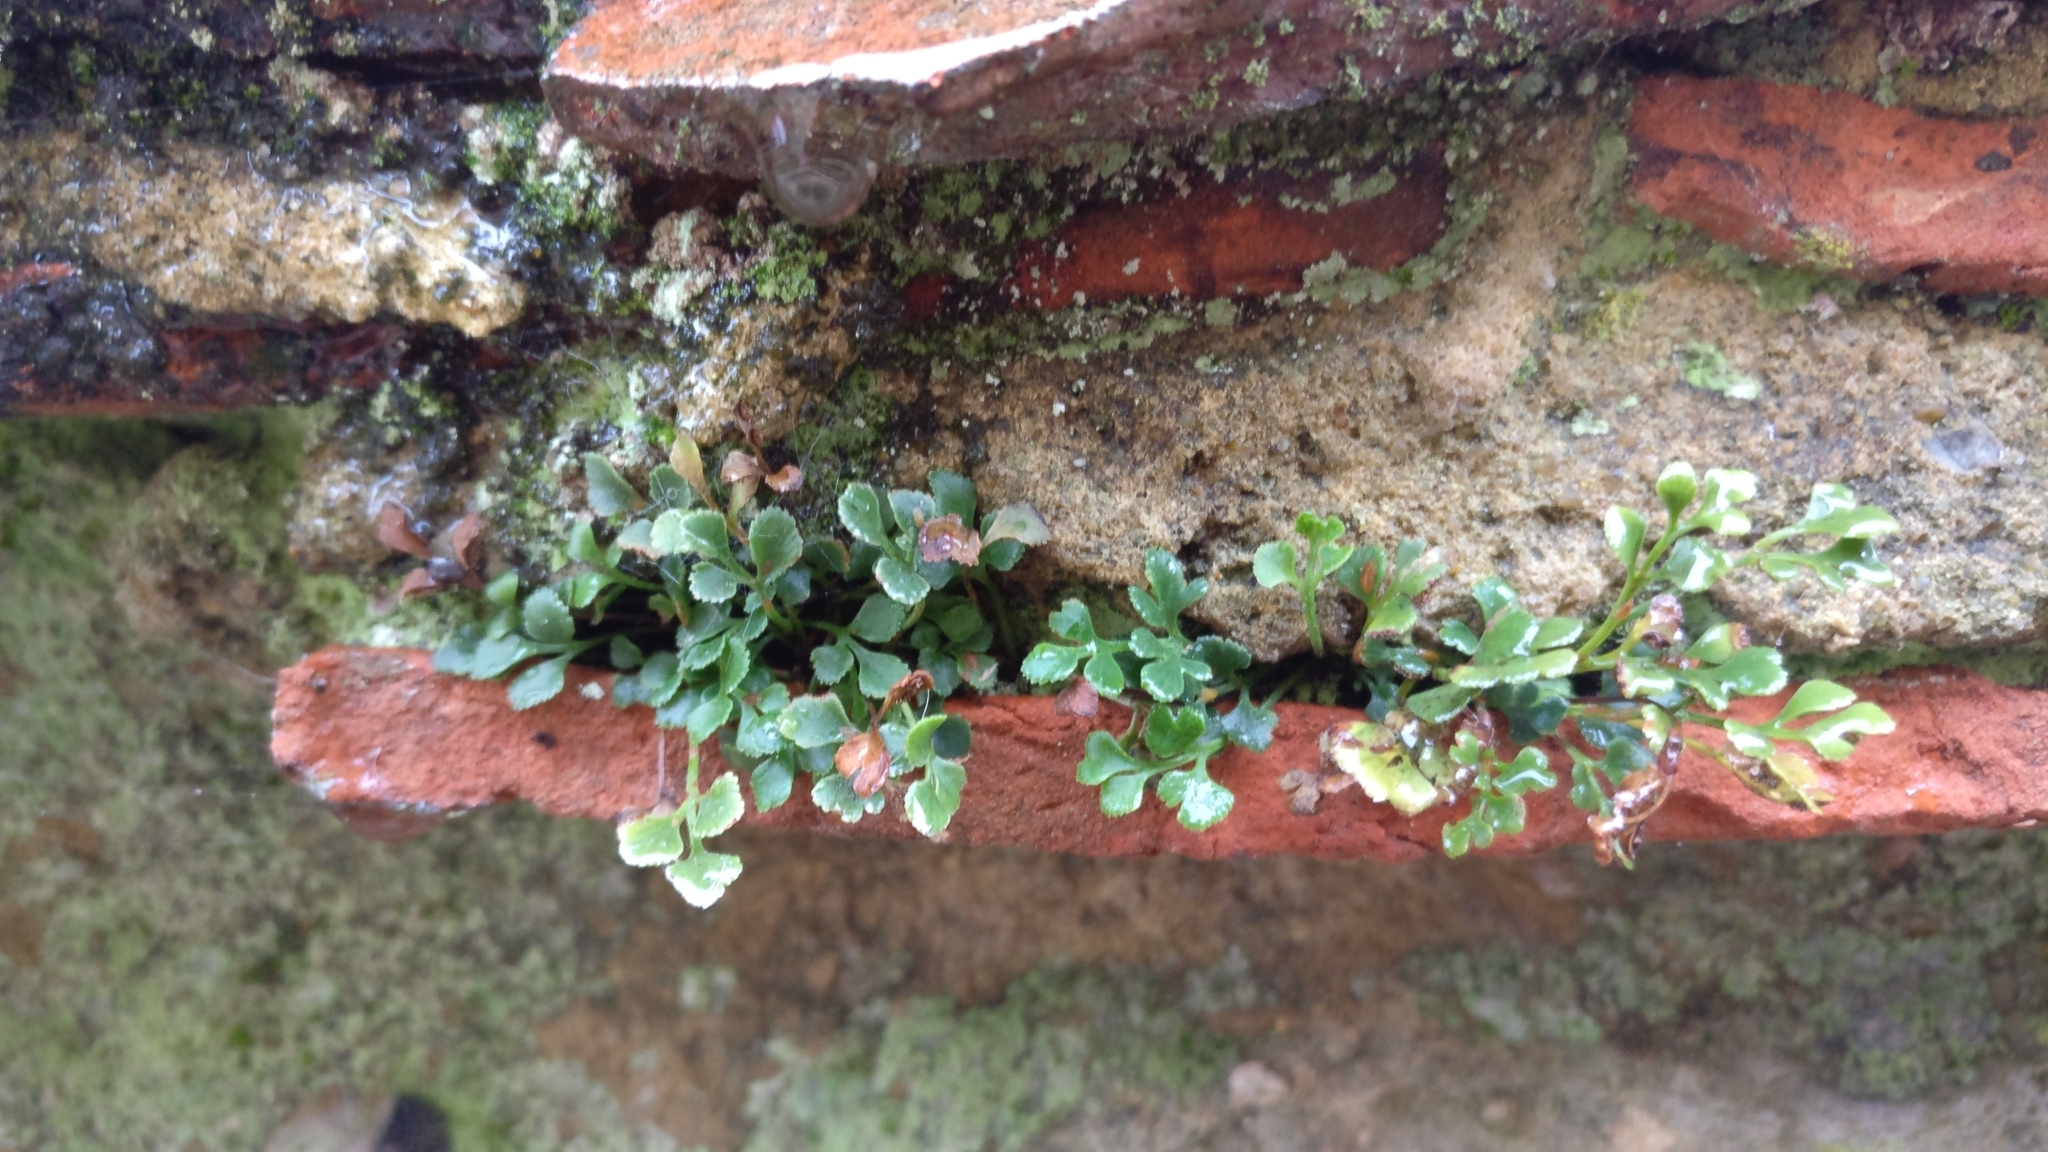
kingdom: Plantae
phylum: Tracheophyta
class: Polypodiopsida
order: Polypodiales
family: Aspleniaceae
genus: Asplenium
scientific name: Asplenium ruta-muraria
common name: Wall-rue
